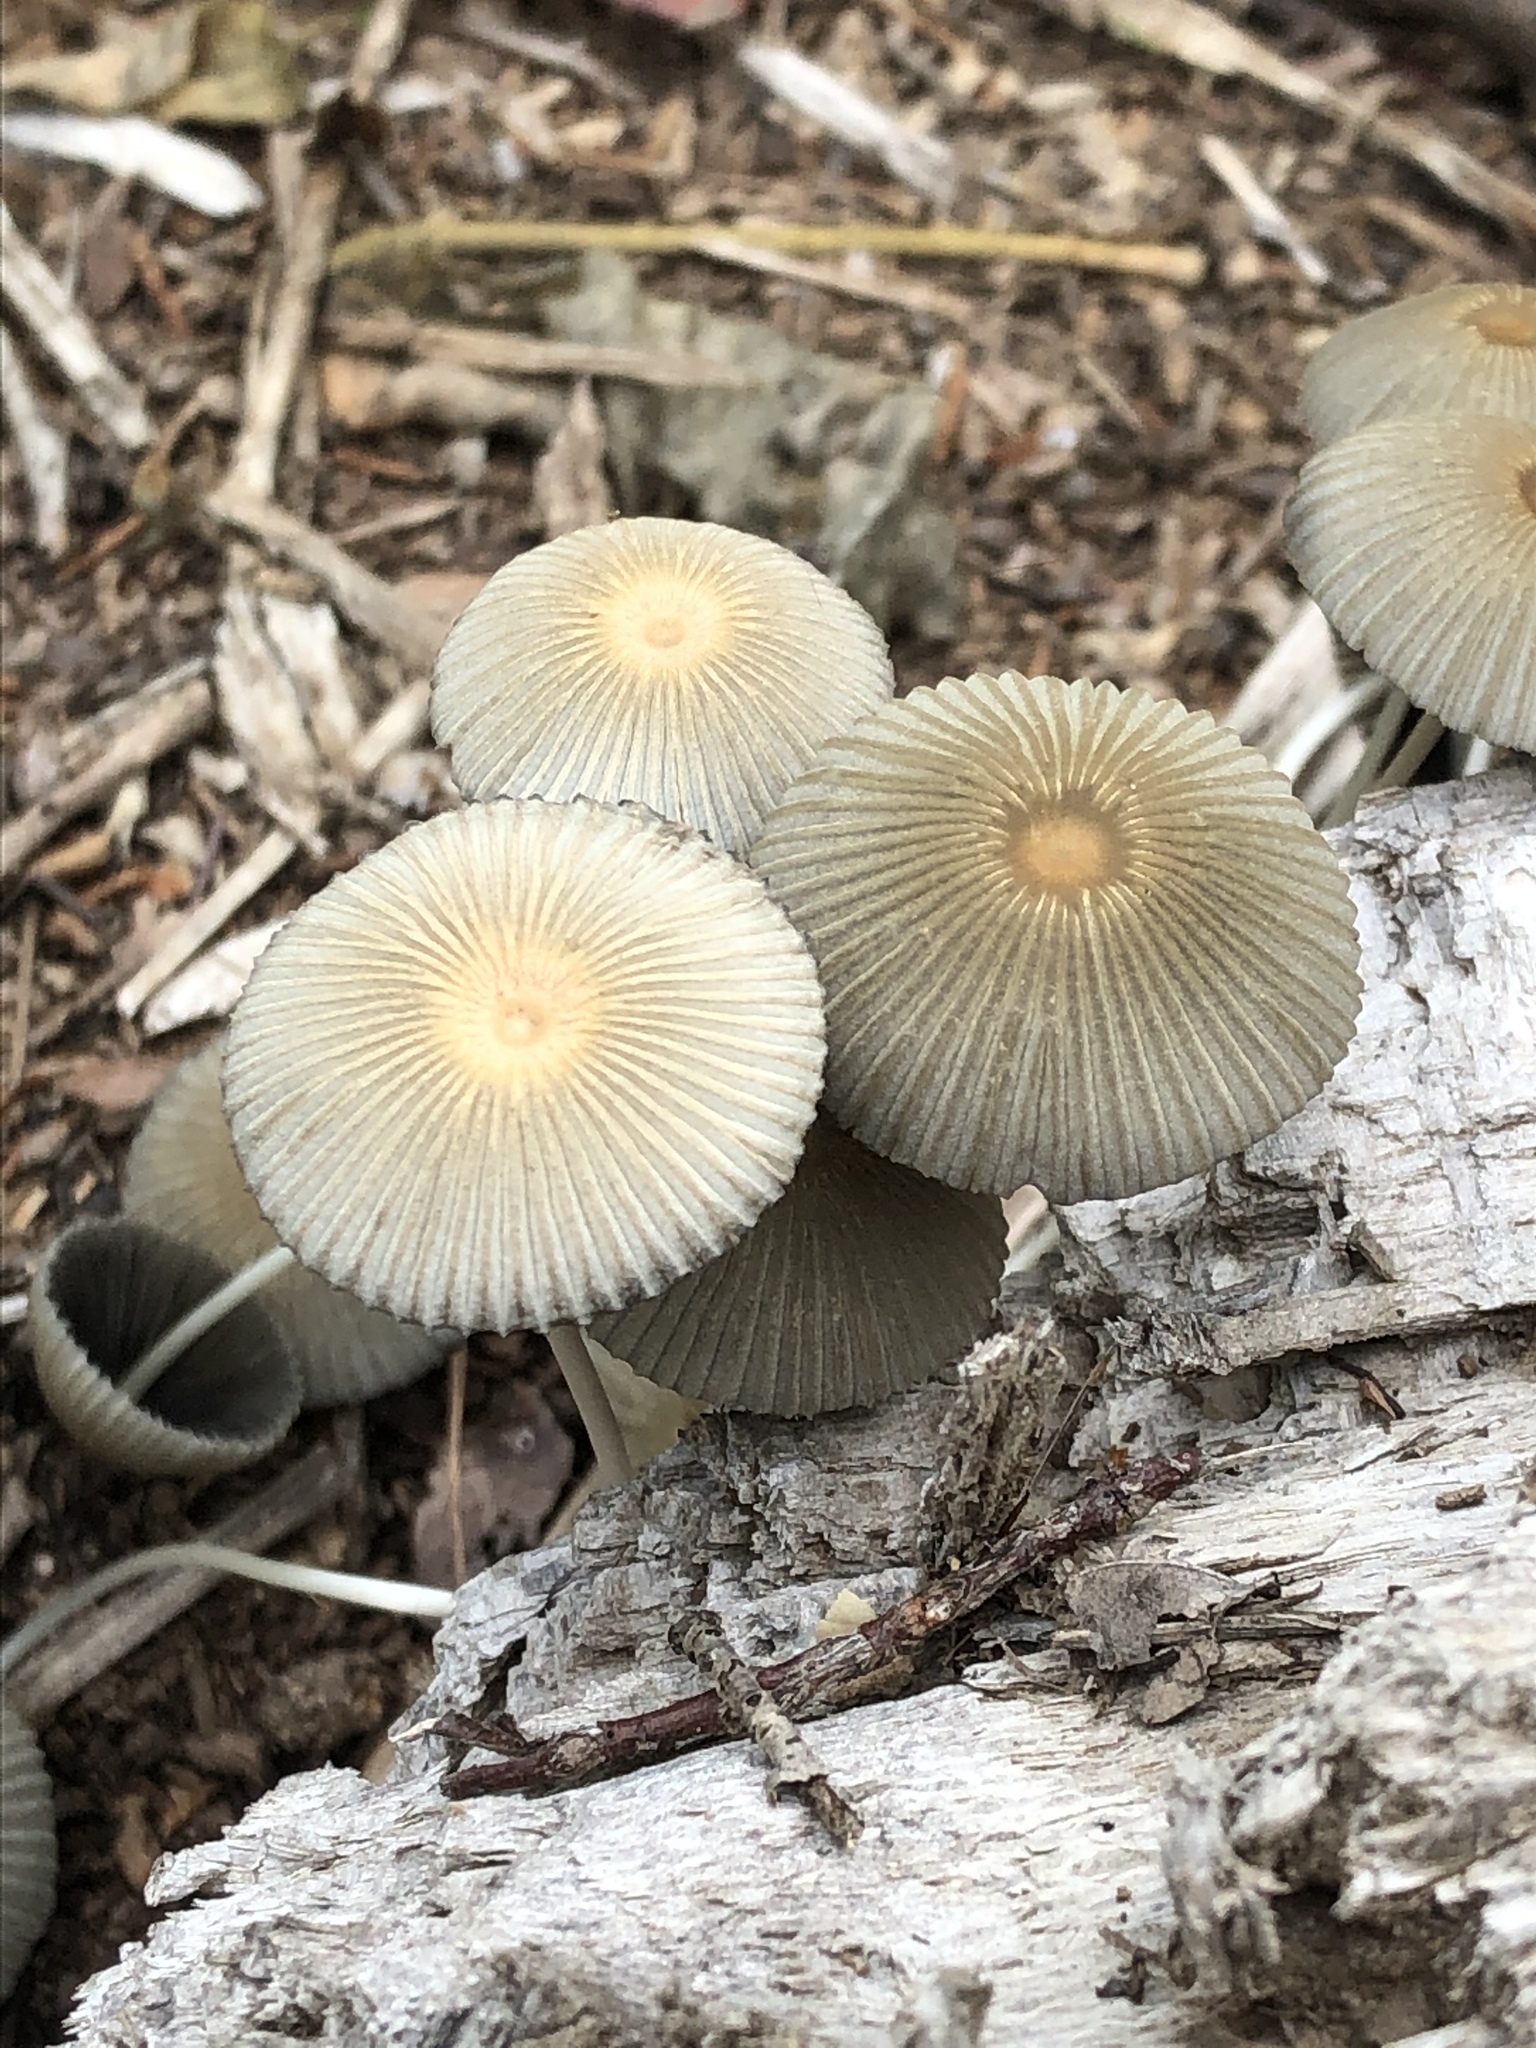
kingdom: Fungi
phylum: Basidiomycota
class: Agaricomycetes
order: Agaricales
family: Psathyrellaceae
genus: Parasola
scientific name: Parasola plicatilis
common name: Pleated inkcap
